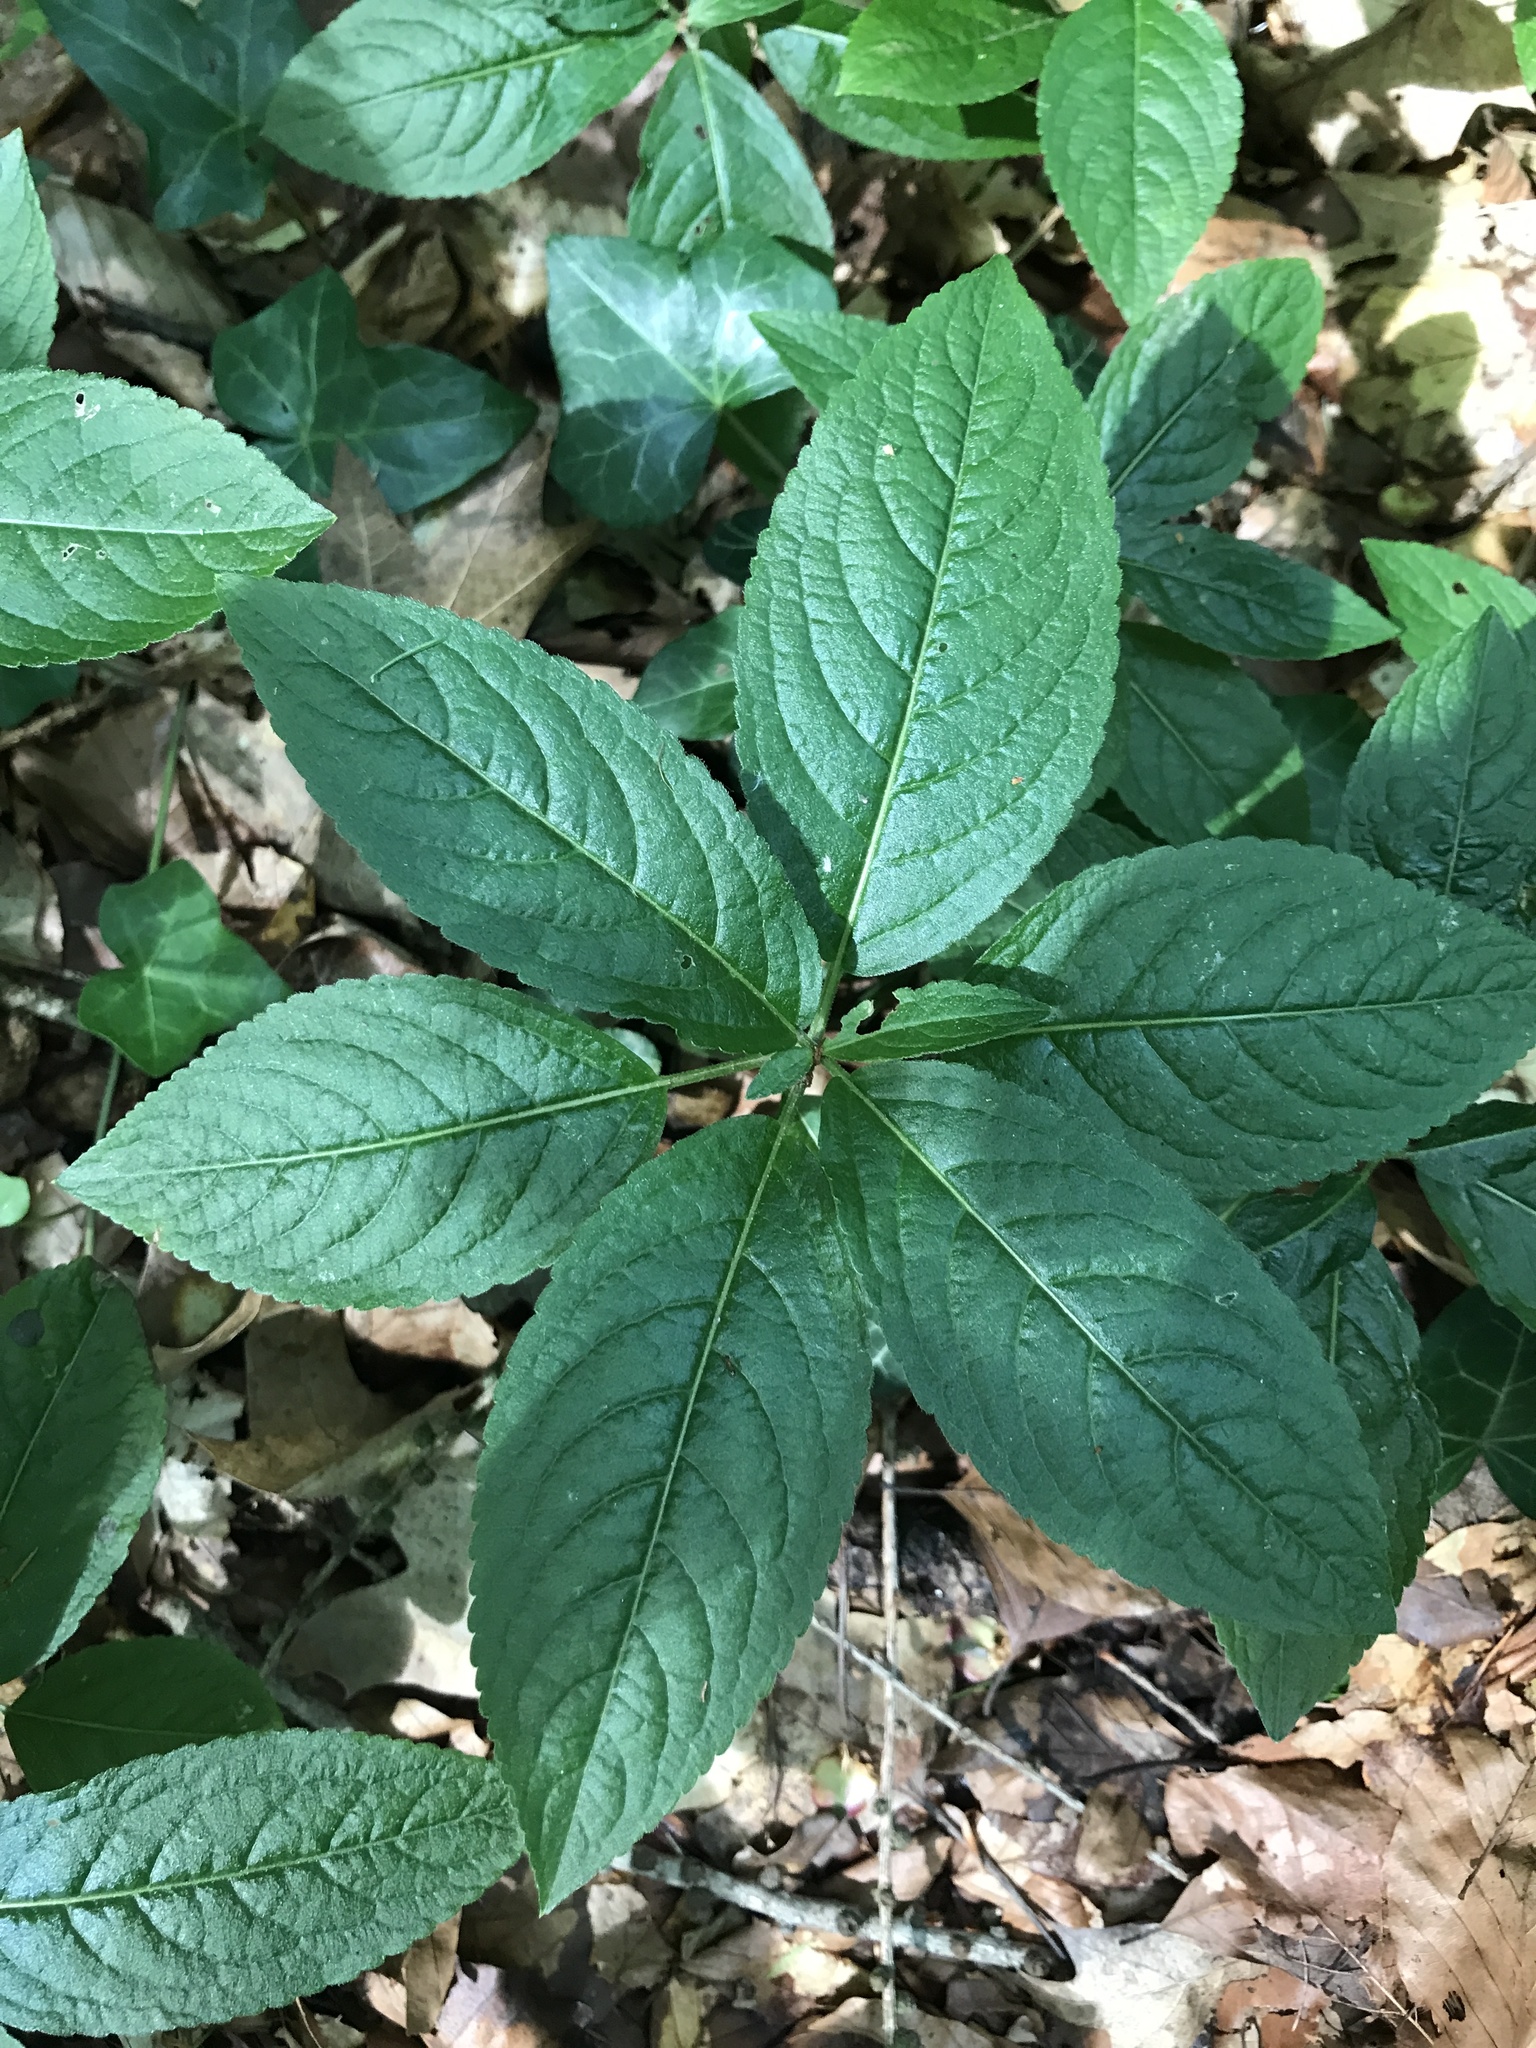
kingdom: Plantae
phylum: Tracheophyta
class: Magnoliopsida
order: Malpighiales
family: Euphorbiaceae
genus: Mercurialis
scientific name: Mercurialis perennis
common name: Dog mercury
